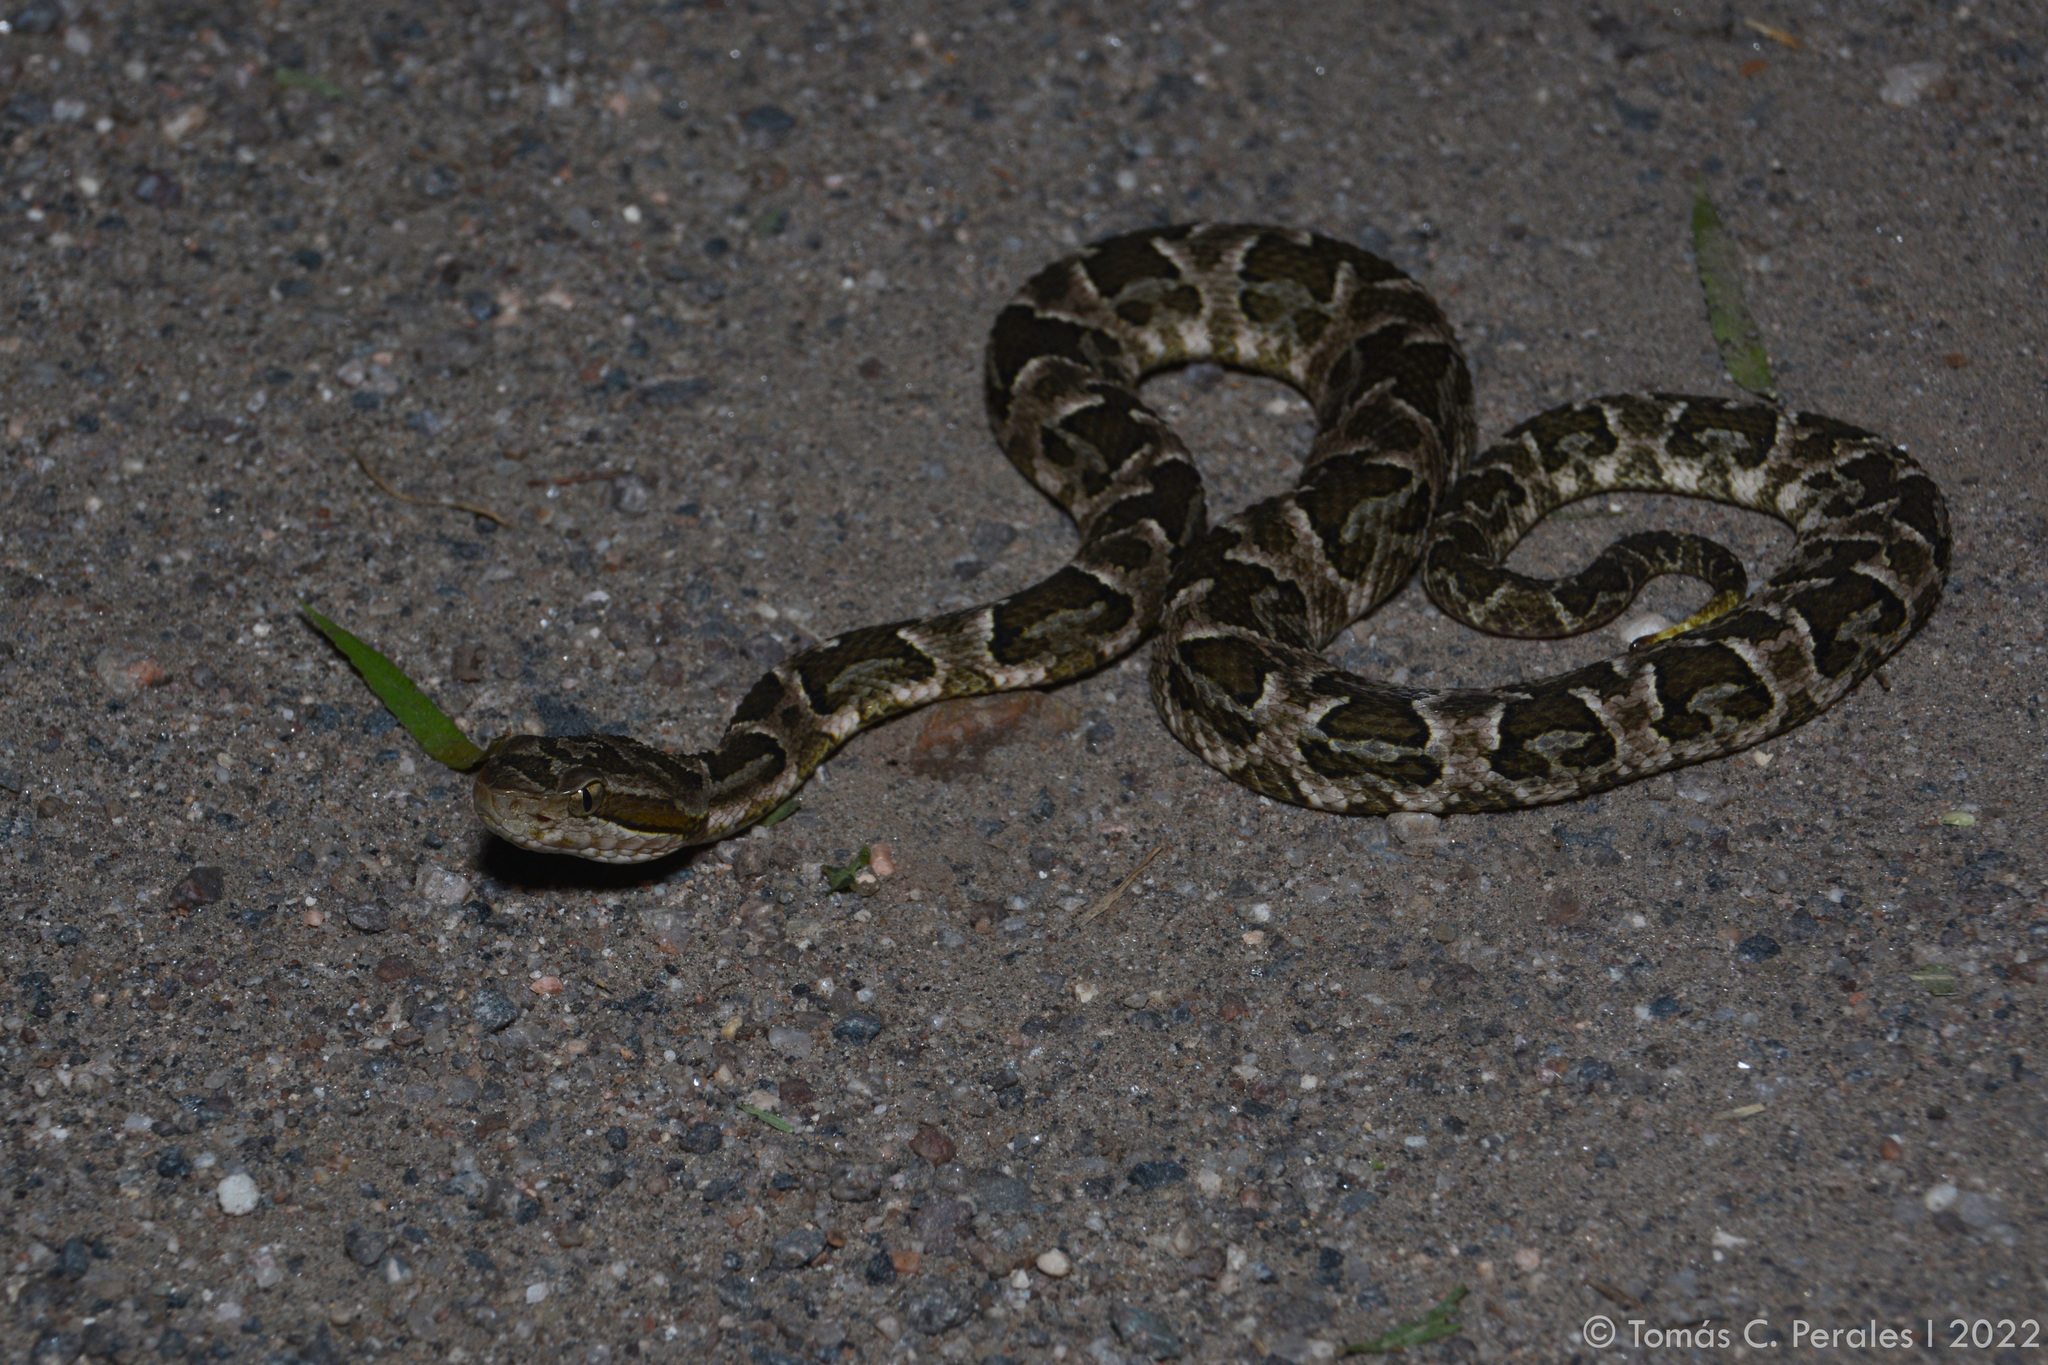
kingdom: Animalia
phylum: Chordata
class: Squamata
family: Viperidae
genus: Bothrops
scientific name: Bothrops diporus
